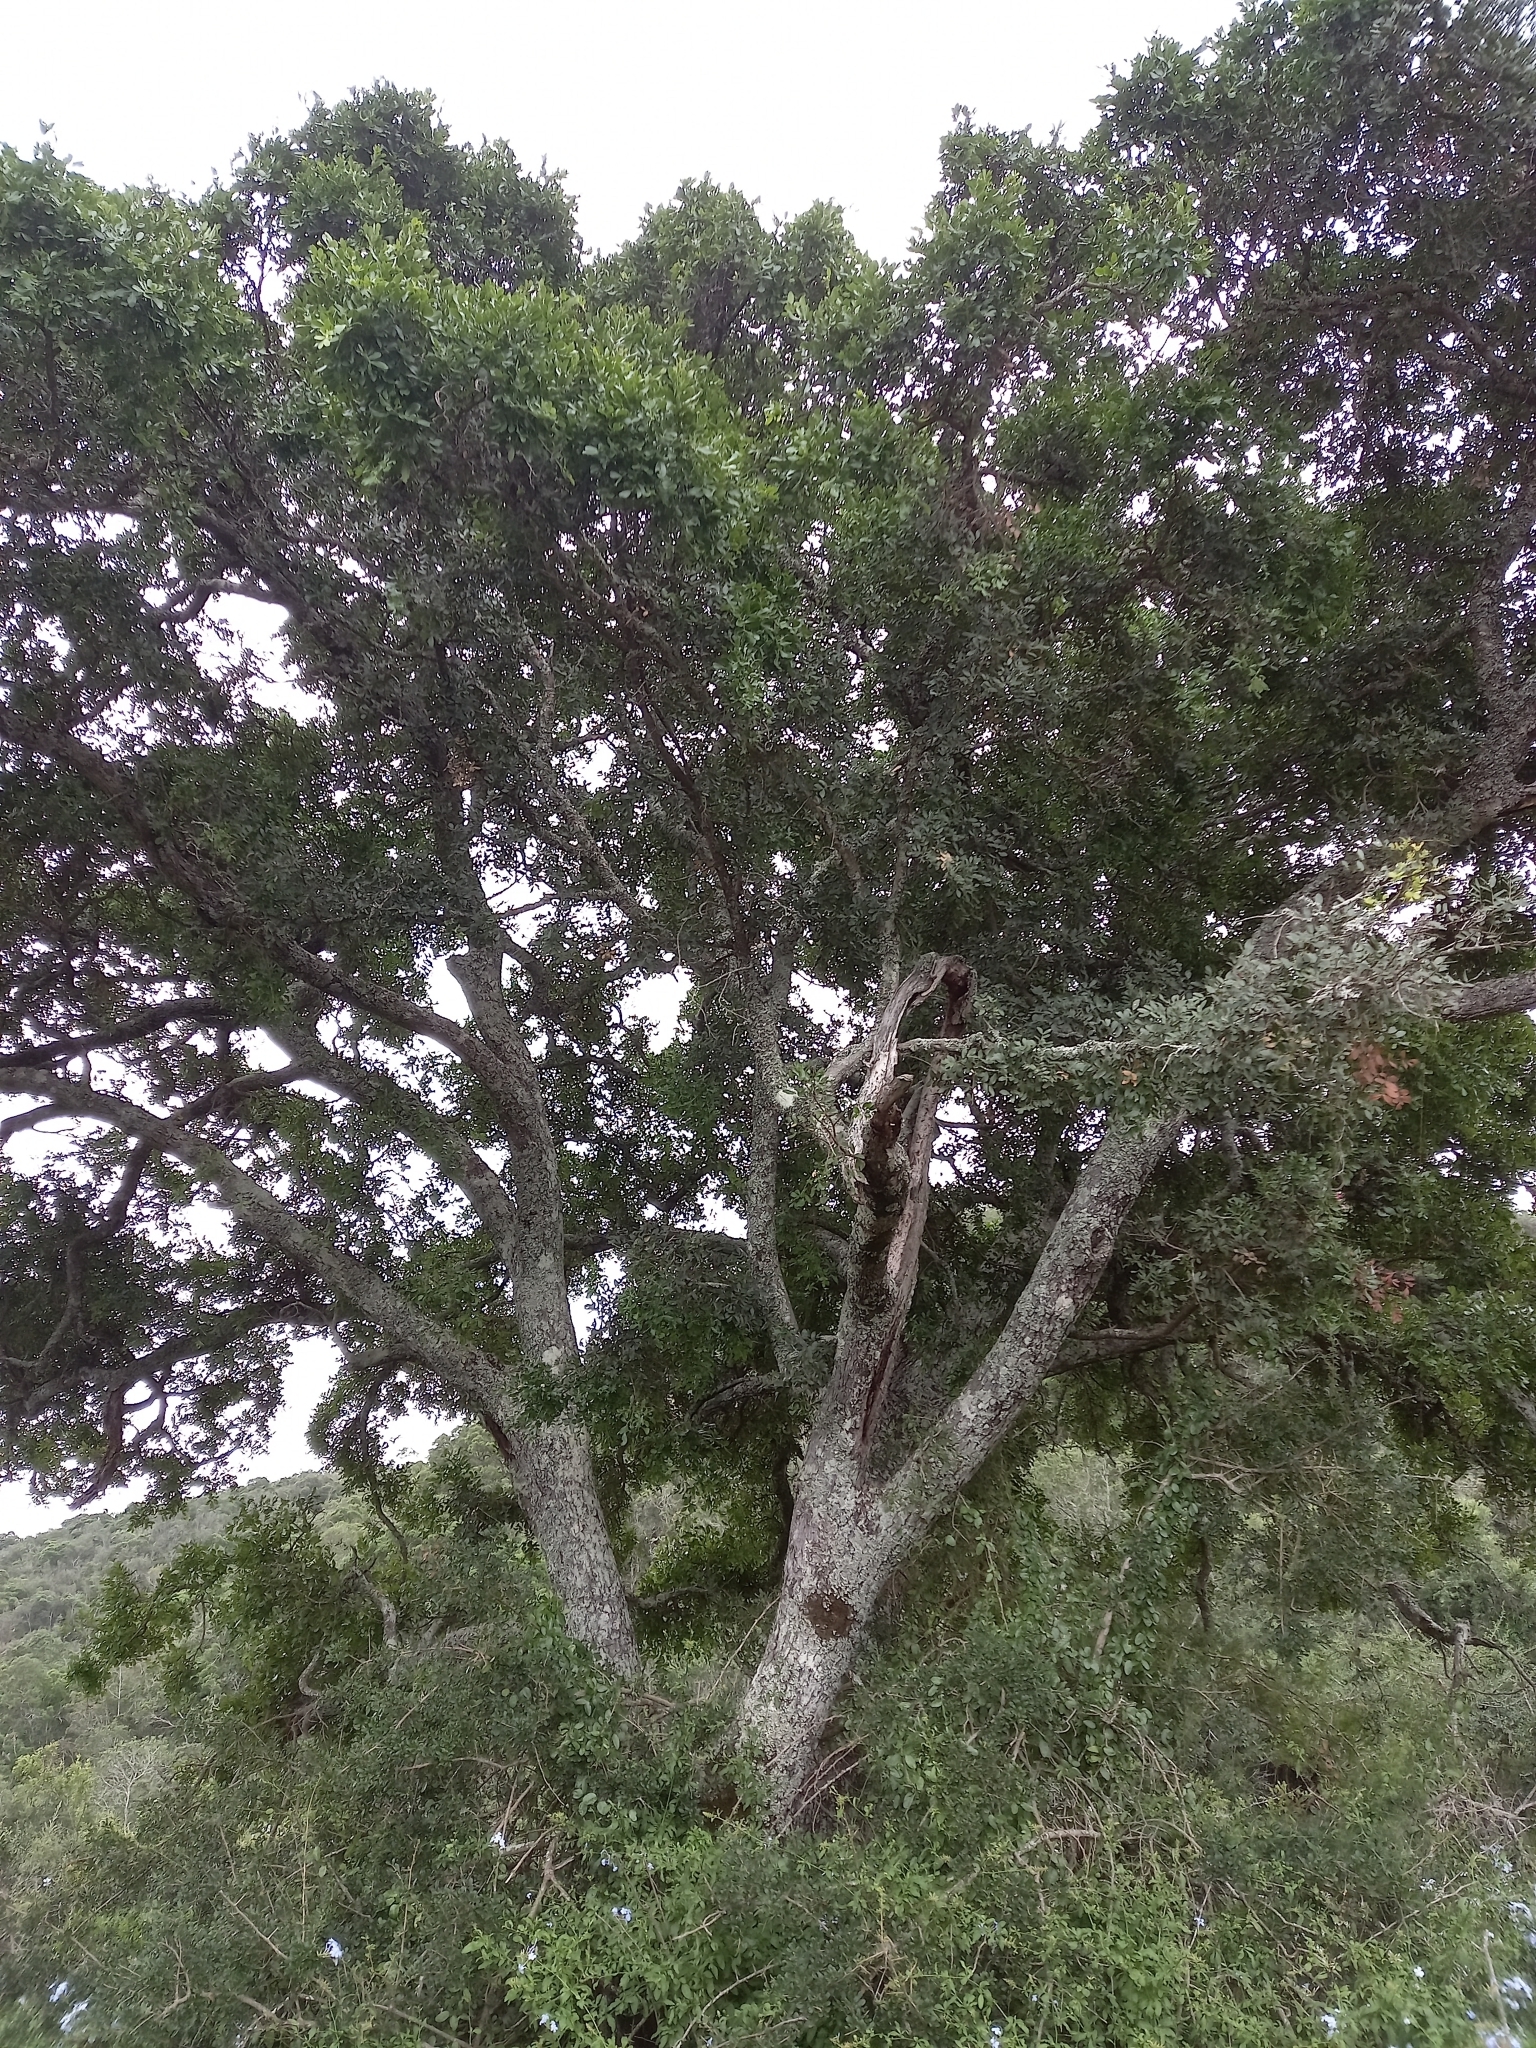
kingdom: Plantae
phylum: Tracheophyta
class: Magnoliopsida
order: Fabales
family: Fabaceae
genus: Schotia
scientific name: Schotia latifolia
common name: Bush boer-bean
